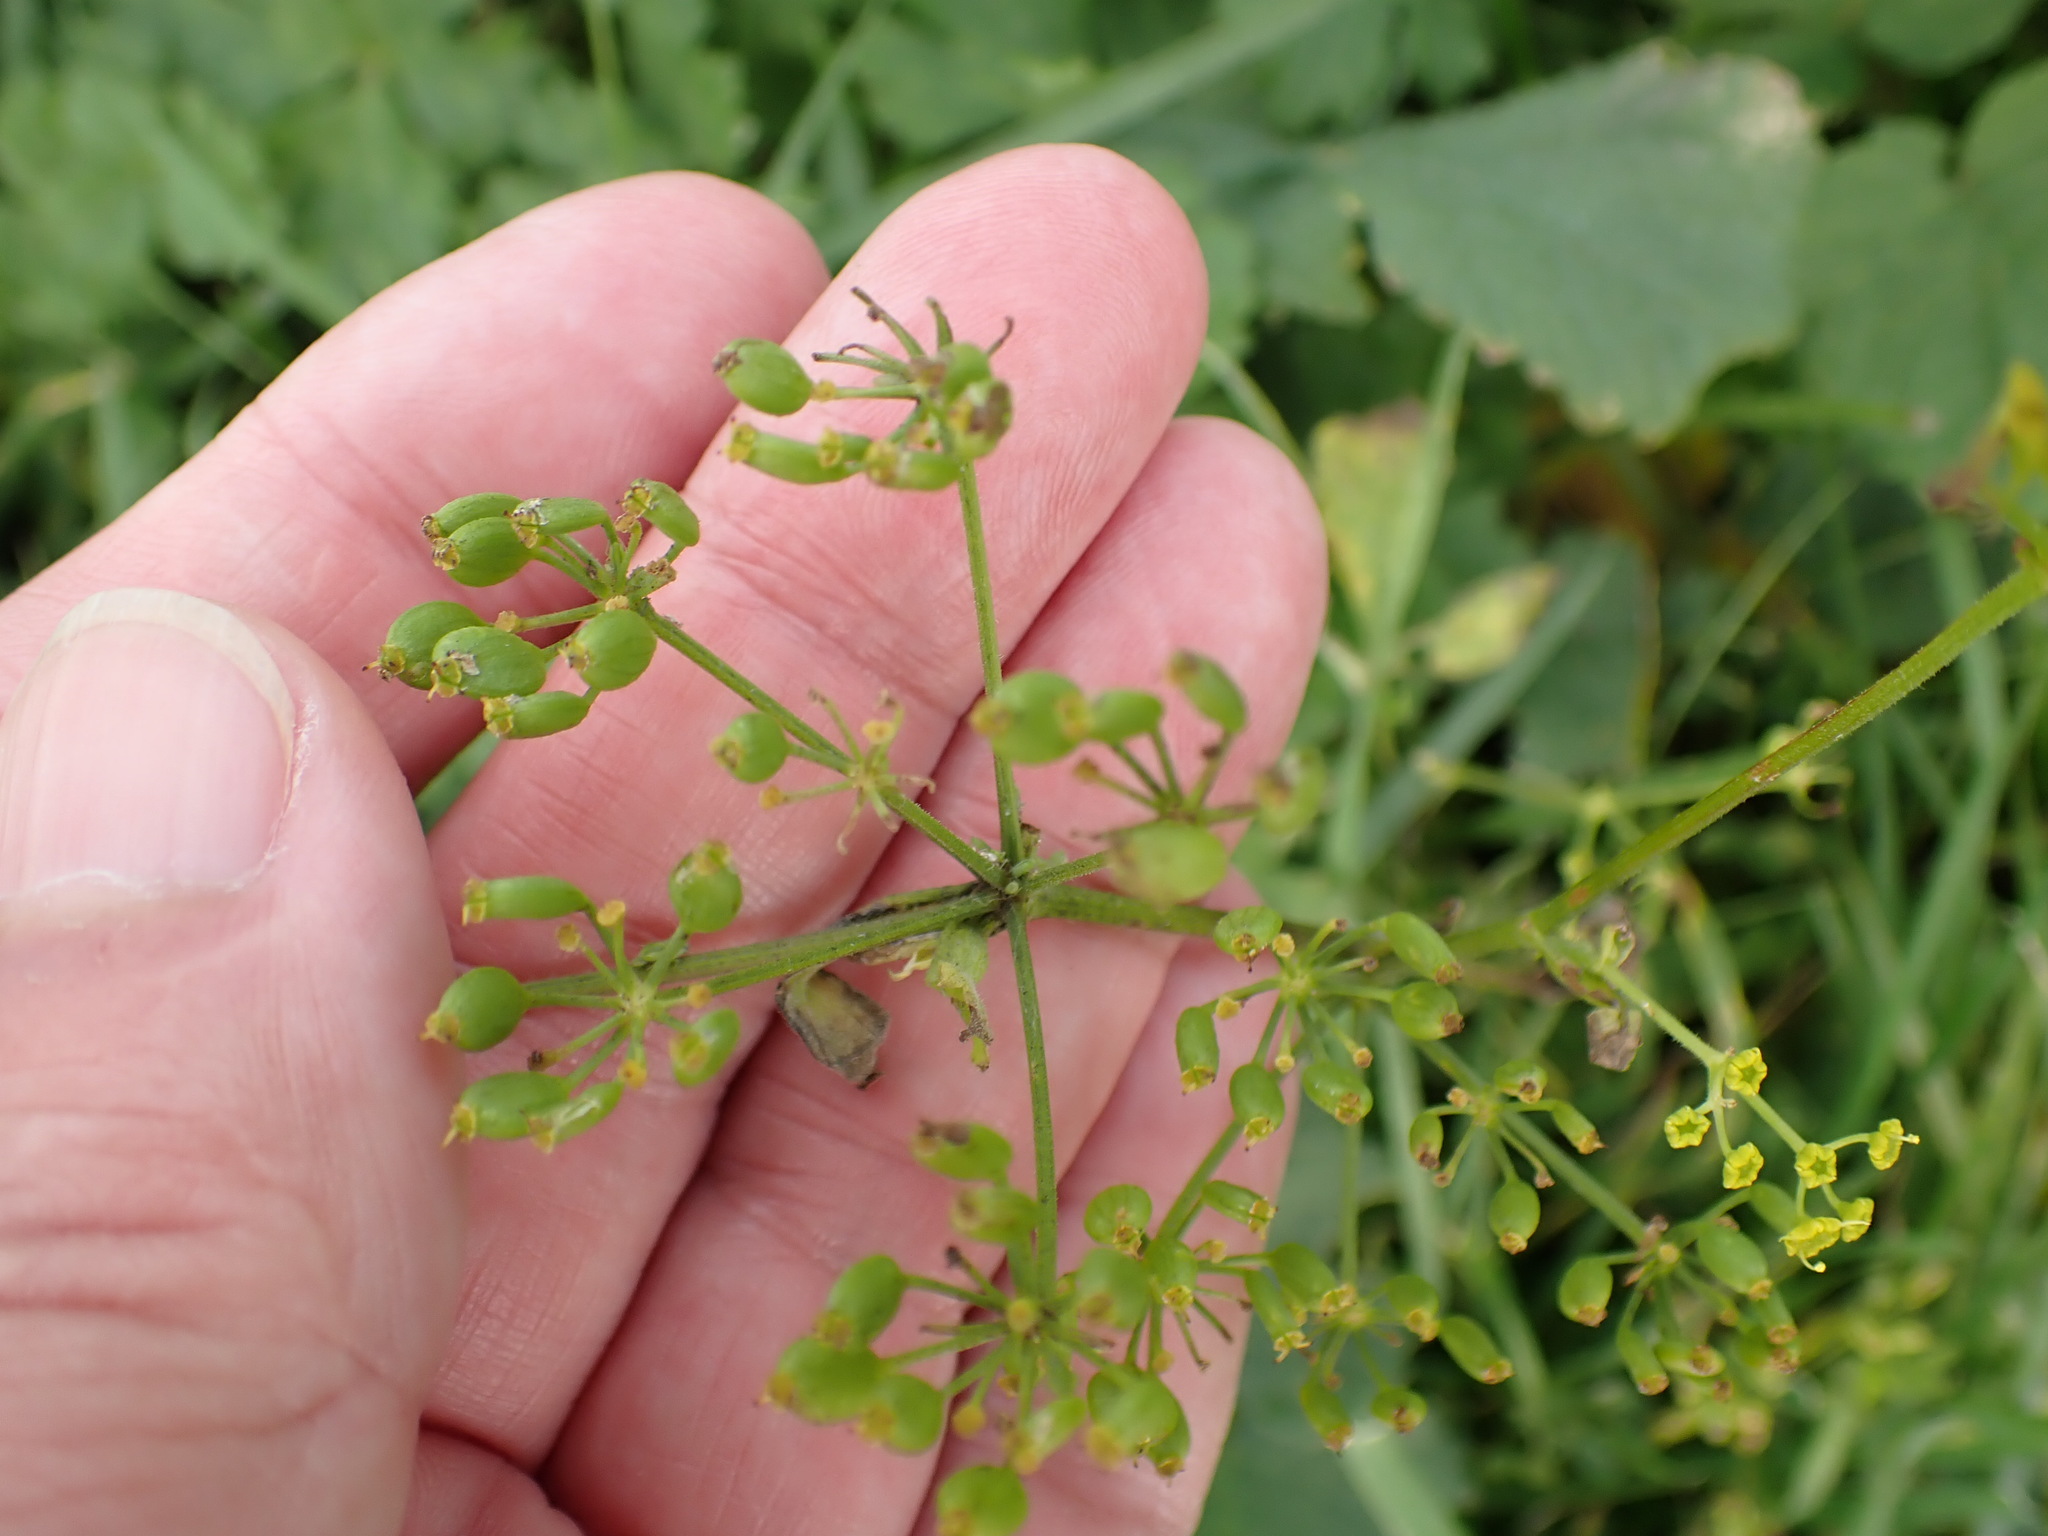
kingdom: Plantae
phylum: Tracheophyta
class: Magnoliopsida
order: Apiales
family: Apiaceae
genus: Pastinaca
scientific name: Pastinaca sativa
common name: Wild parsnip
